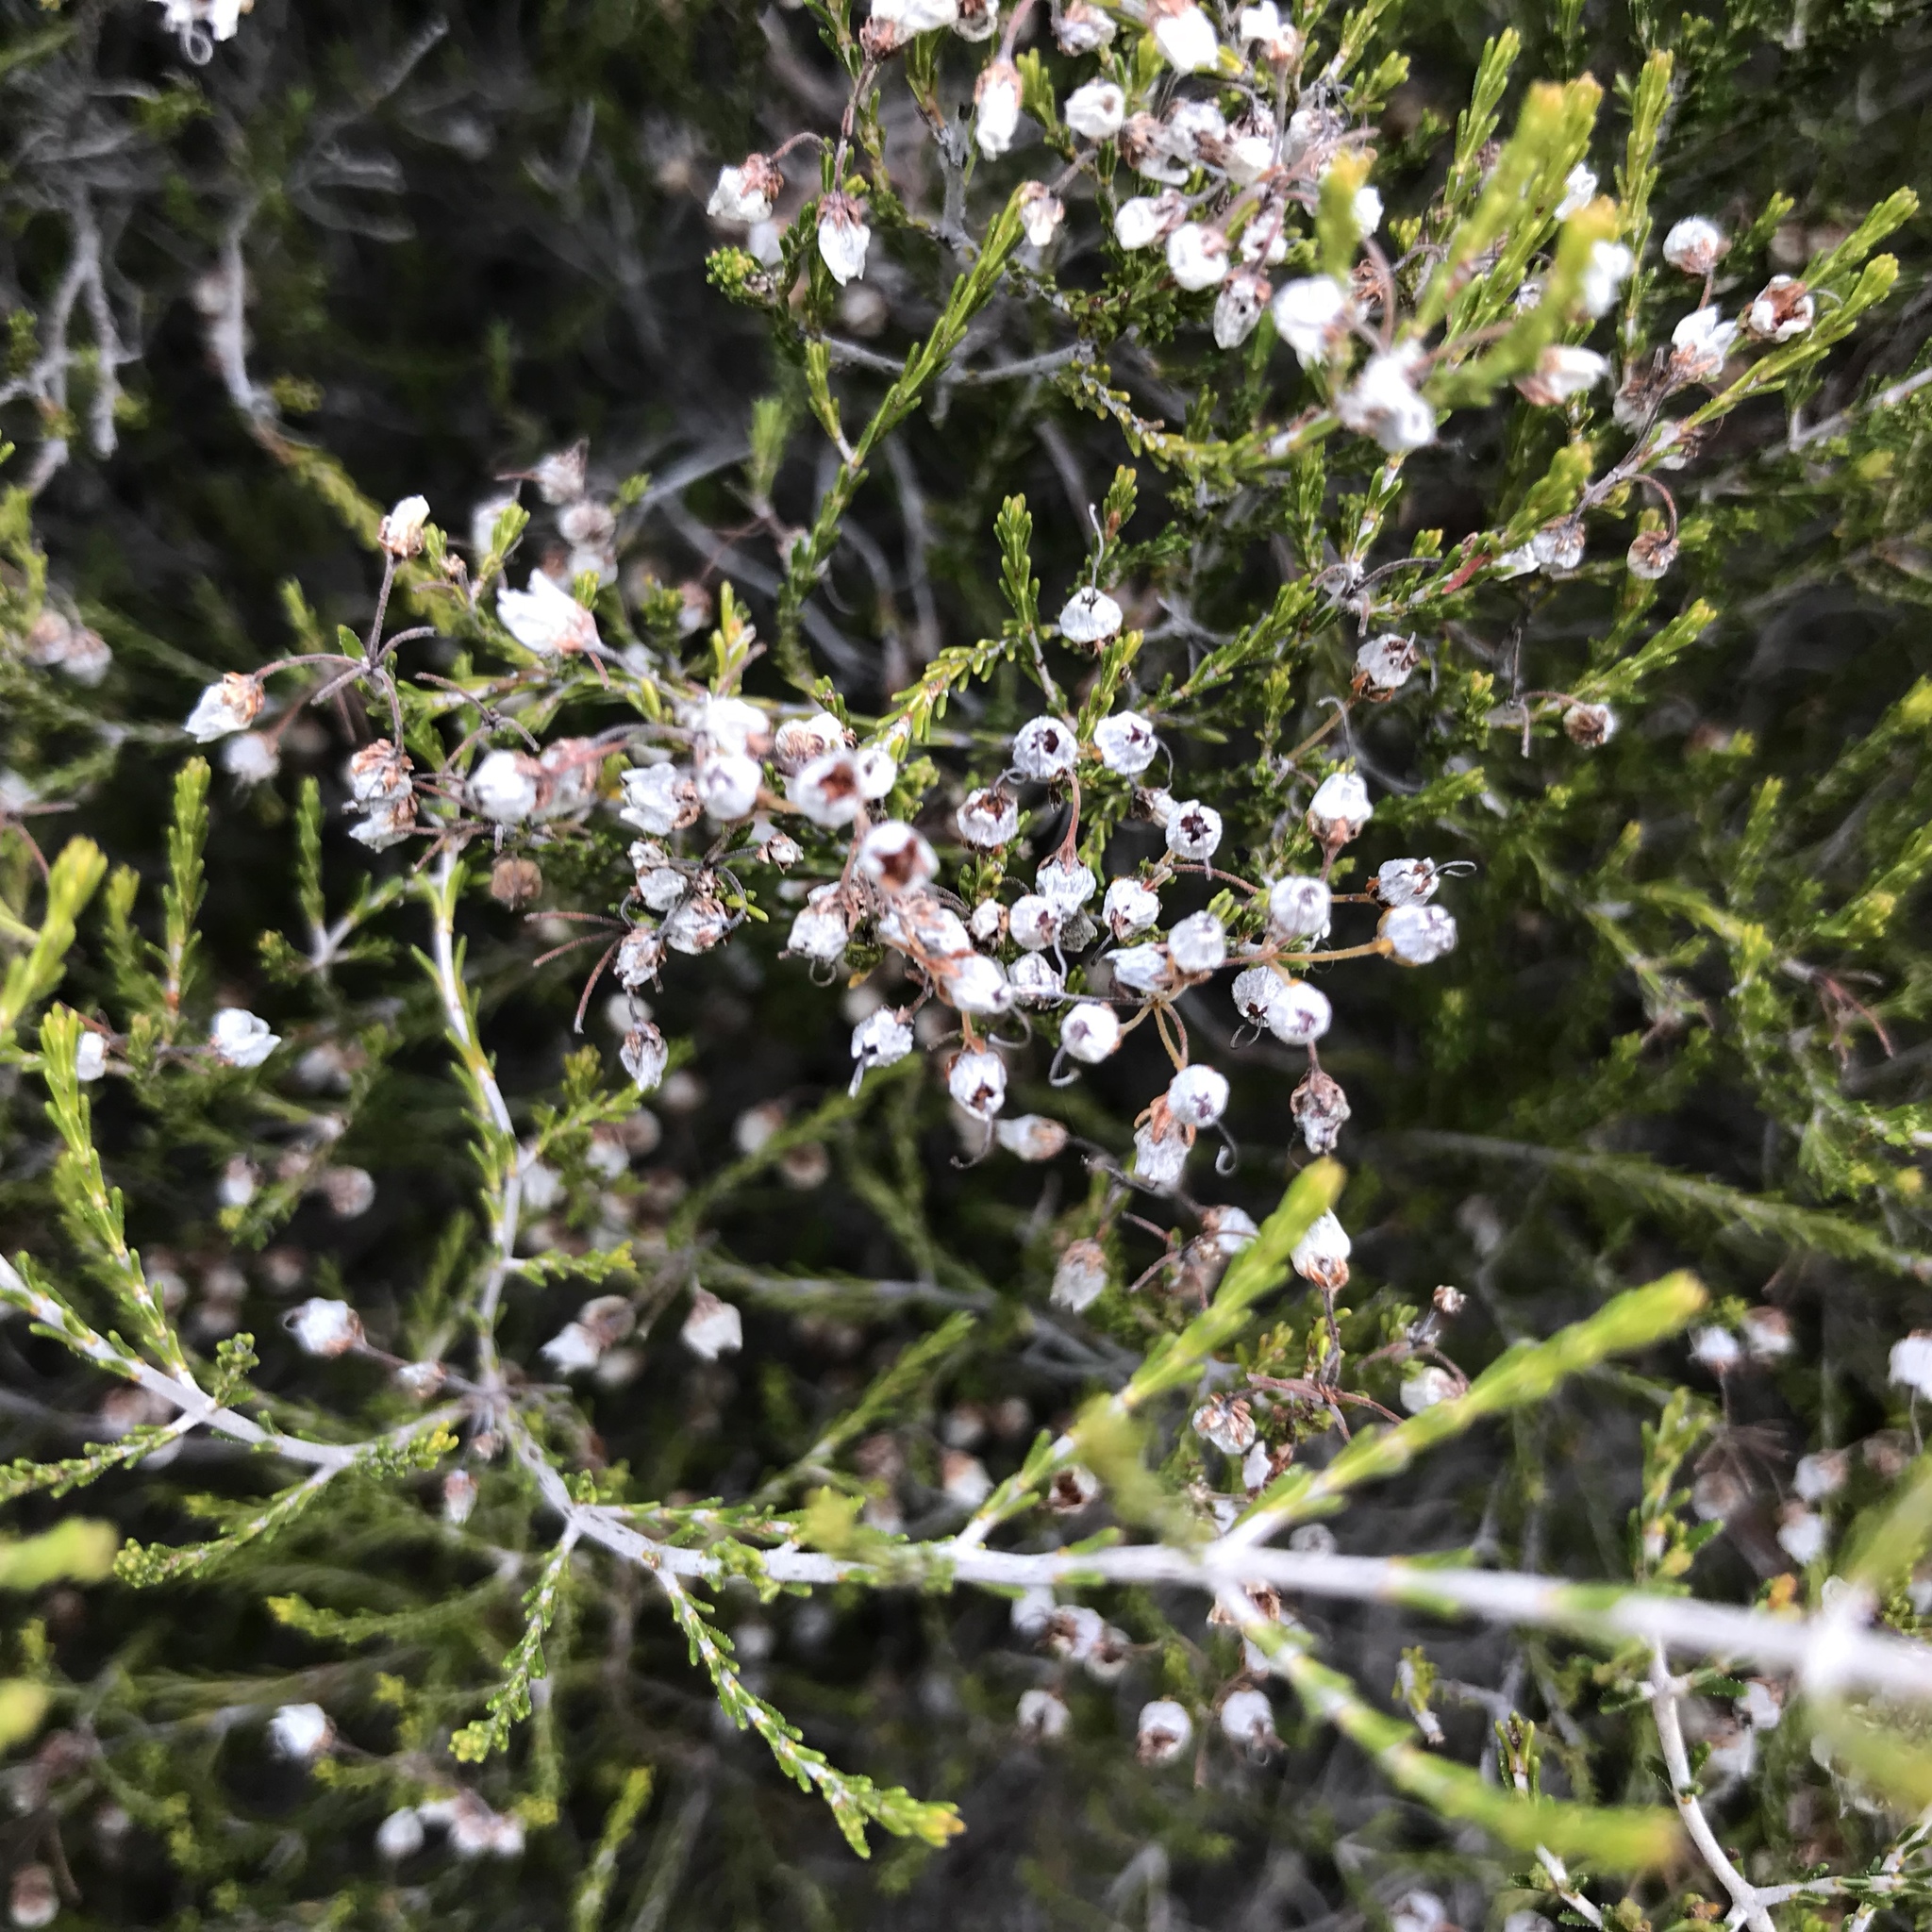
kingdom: Plantae
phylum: Tracheophyta
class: Magnoliopsida
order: Ericales
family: Ericaceae
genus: Erica
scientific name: Erica arborea
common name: Tree heath
